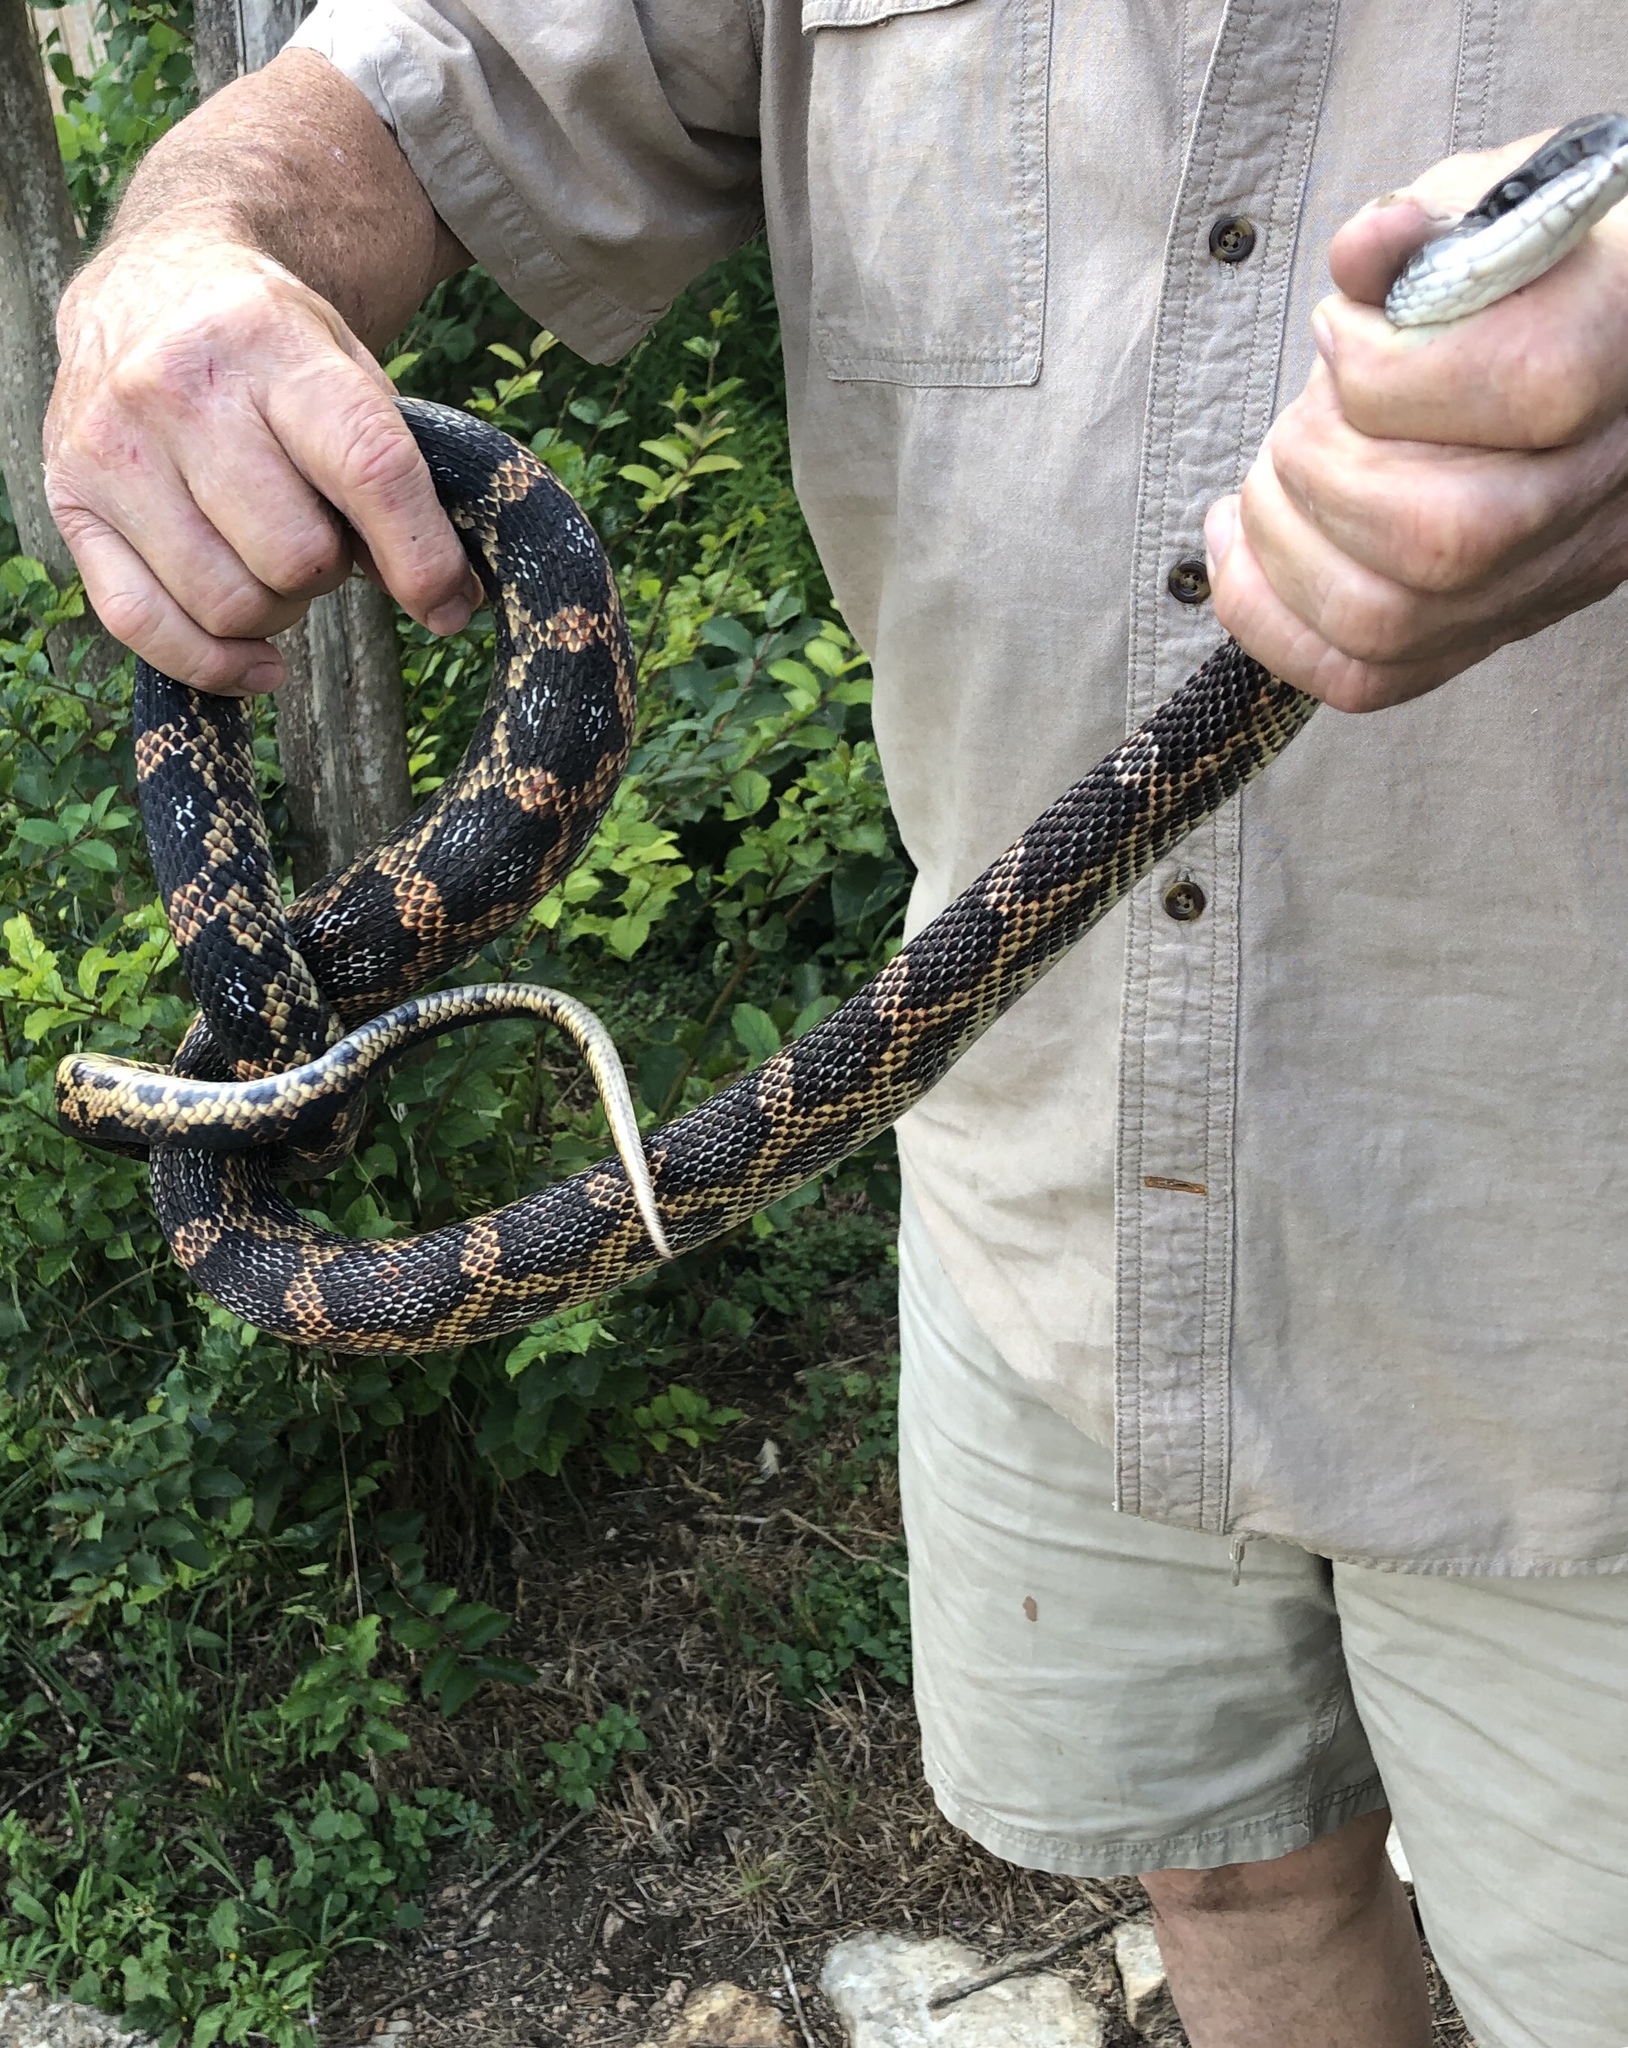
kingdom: Animalia
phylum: Chordata
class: Squamata
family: Colubridae
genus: Pantherophis
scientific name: Pantherophis obsoletus
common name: Black rat snake
